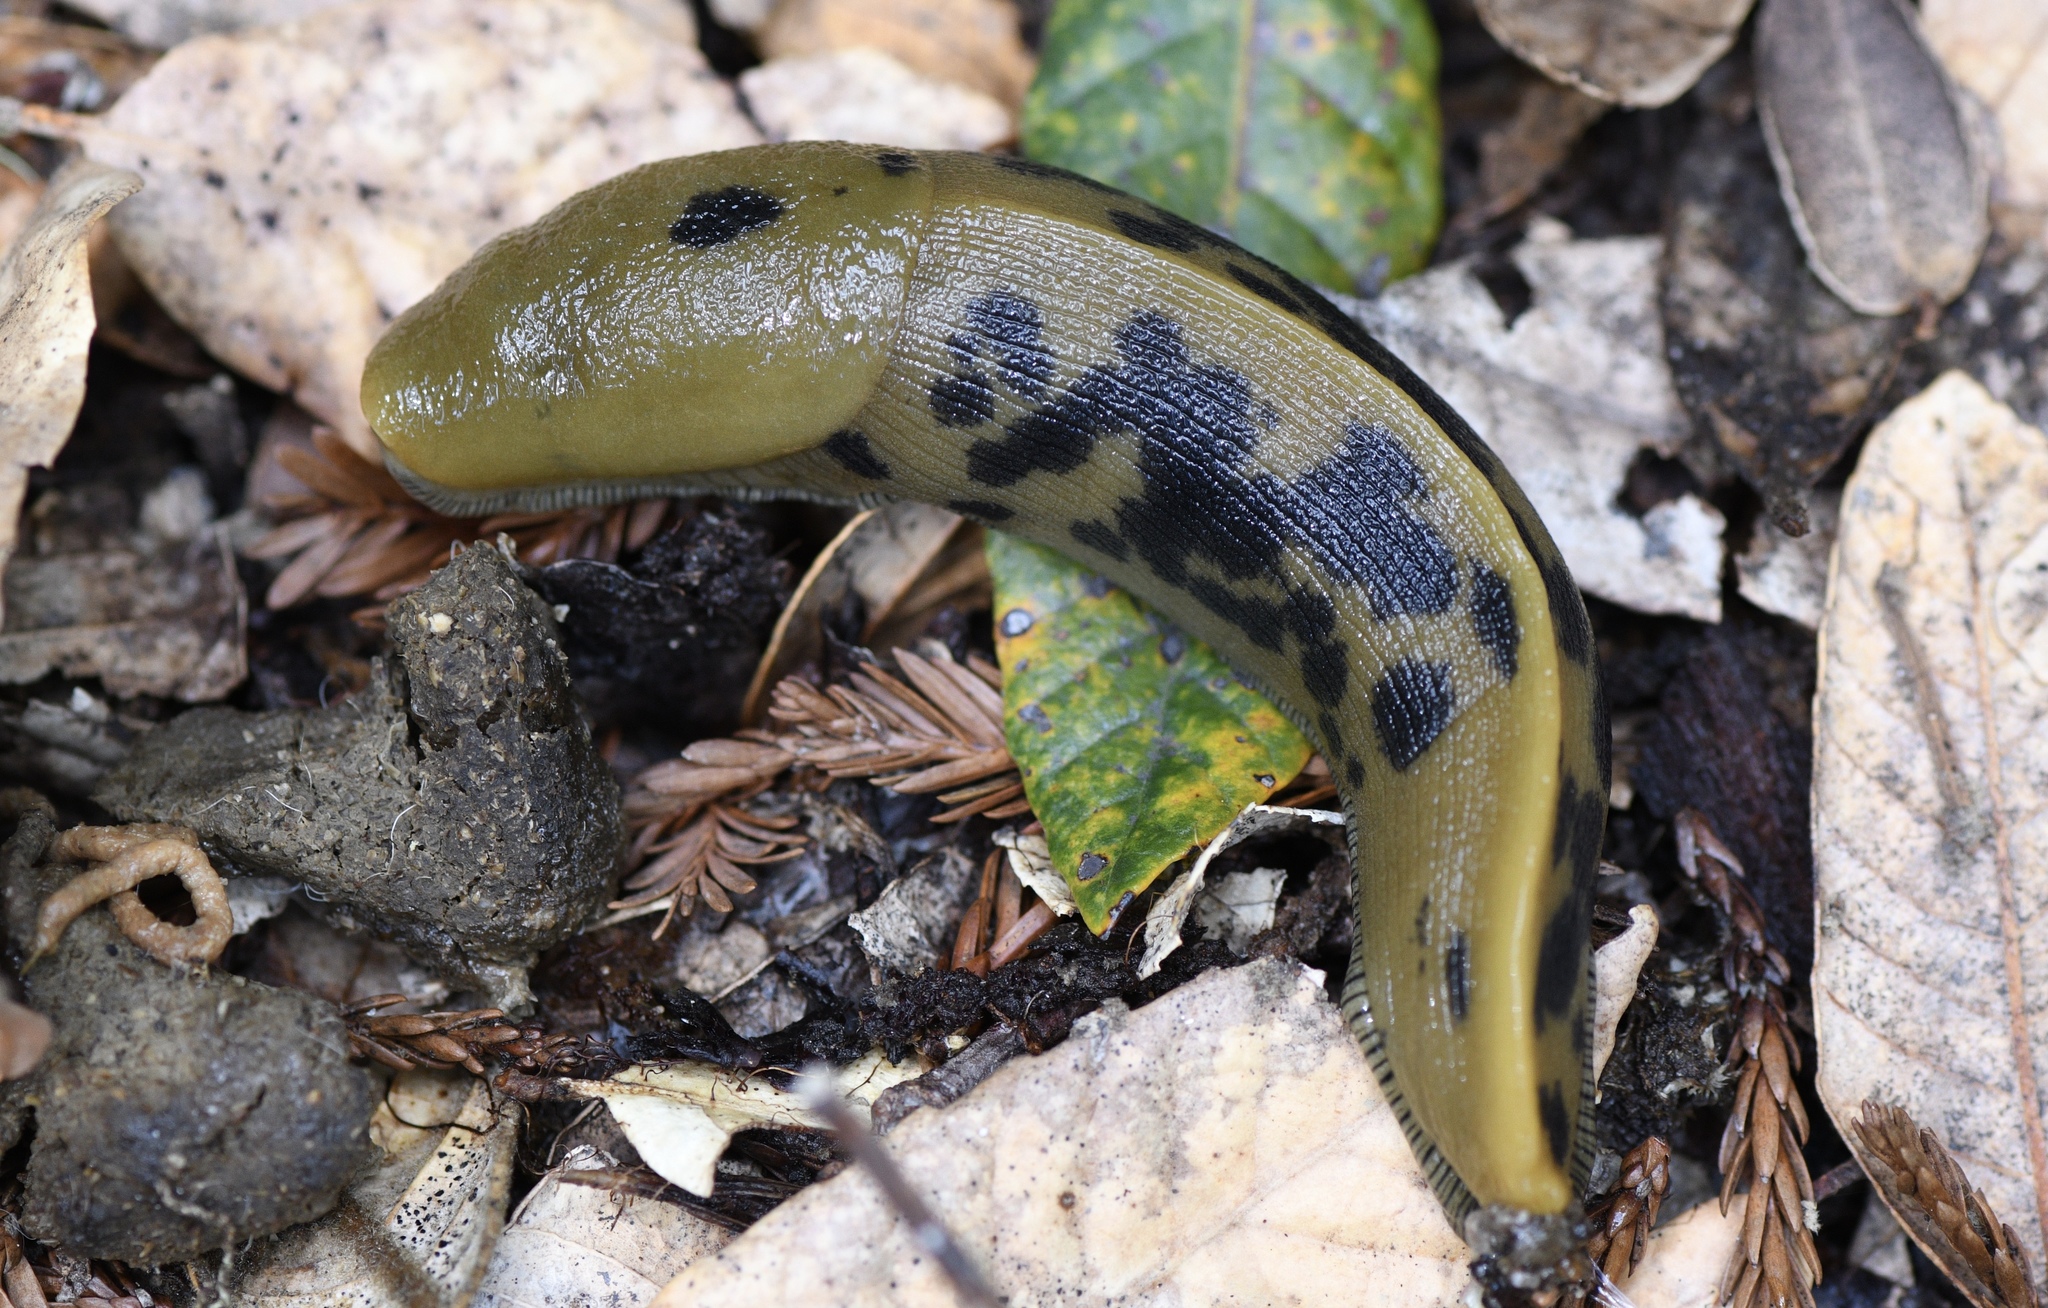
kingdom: Animalia
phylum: Mollusca
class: Gastropoda
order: Stylommatophora
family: Ariolimacidae
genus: Ariolimax
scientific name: Ariolimax buttoni
